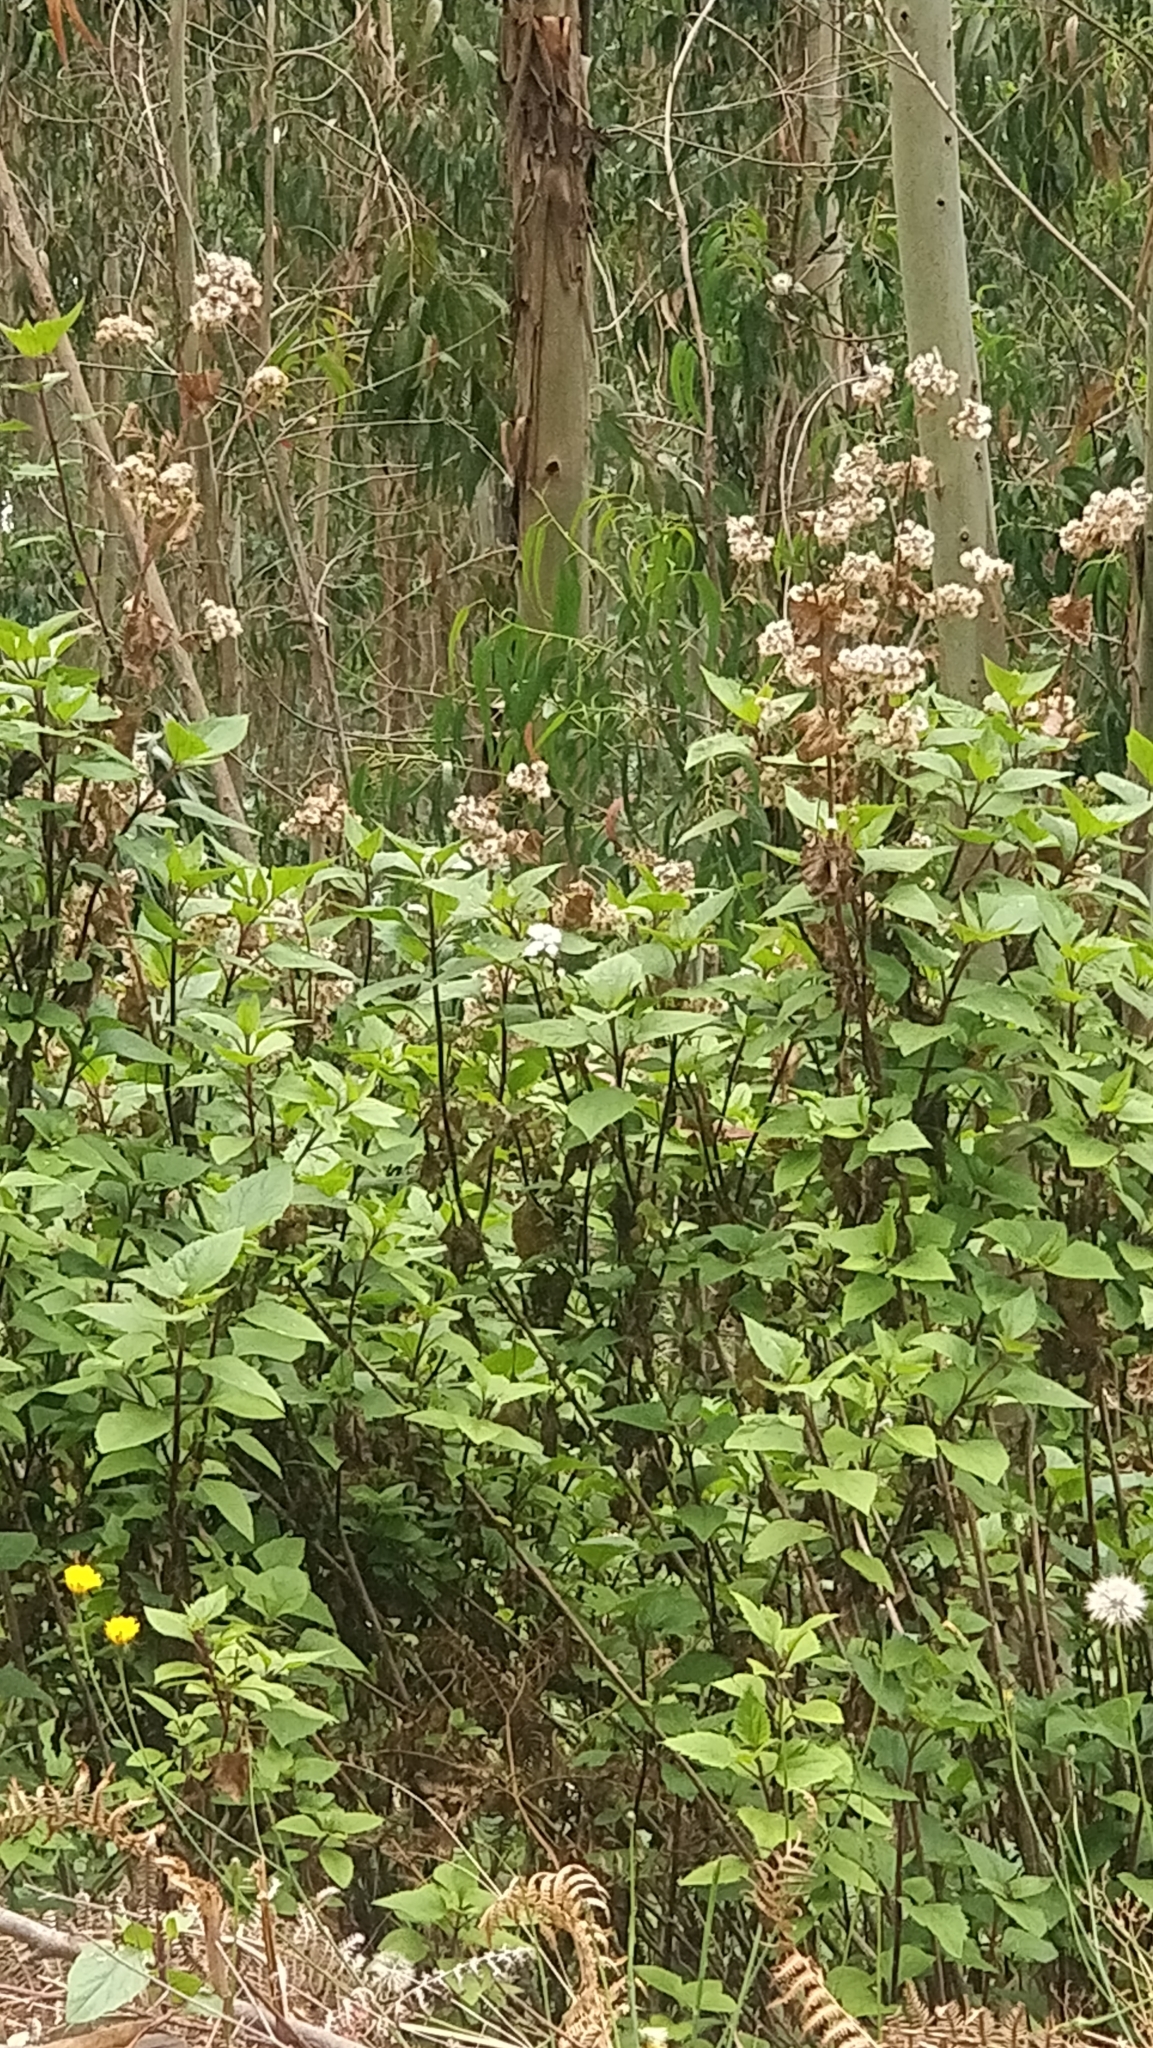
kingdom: Plantae
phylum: Tracheophyta
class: Magnoliopsida
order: Asterales
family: Asteraceae
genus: Ageratina
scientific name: Ageratina adenophora
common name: Sticky snakeroot
